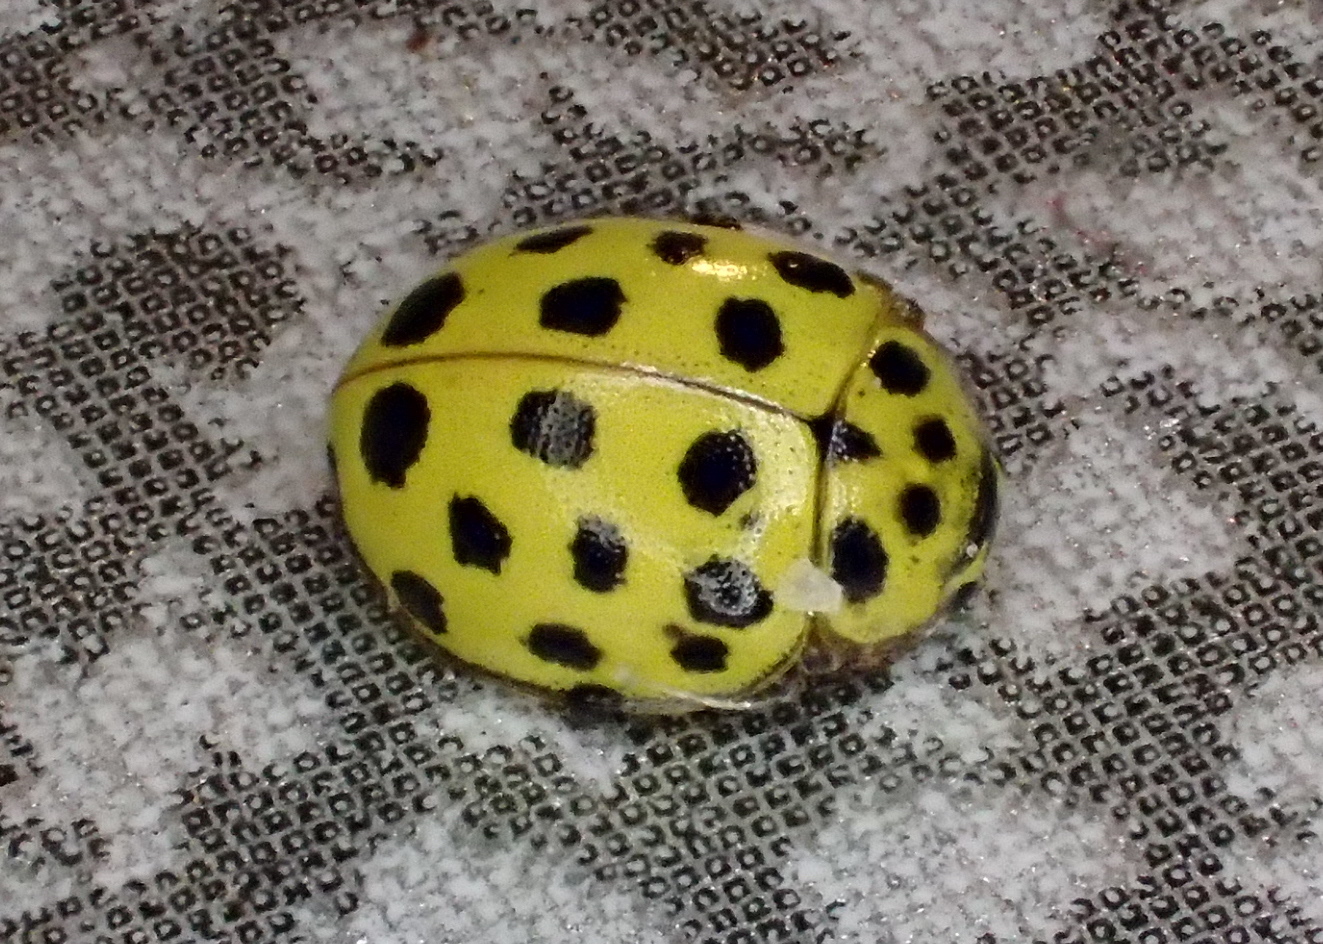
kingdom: Animalia
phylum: Arthropoda
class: Insecta
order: Coleoptera
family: Coccinellidae
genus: Psyllobora
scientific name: Psyllobora vigintiduopunctata
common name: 22-spot ladybird
